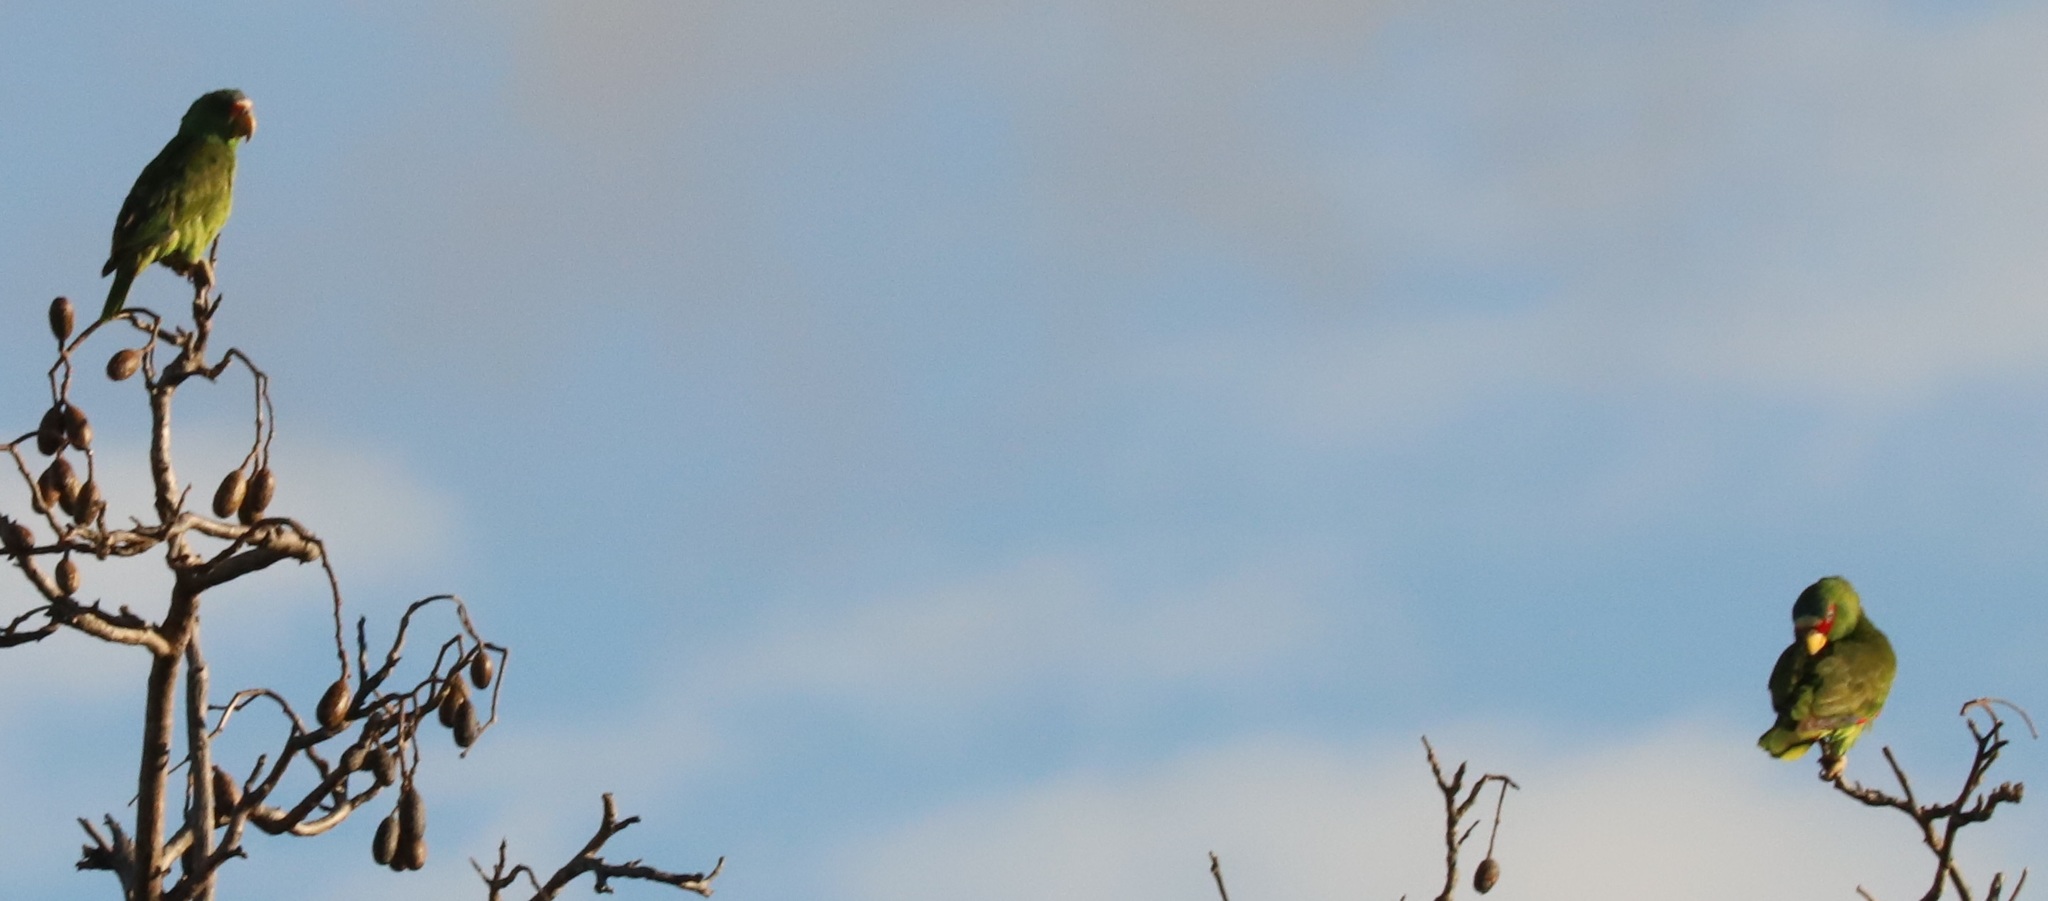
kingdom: Animalia
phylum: Chordata
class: Aves
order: Psittaciformes
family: Psittacidae
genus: Amazona
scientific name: Amazona albifrons
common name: White-fronted amazon
